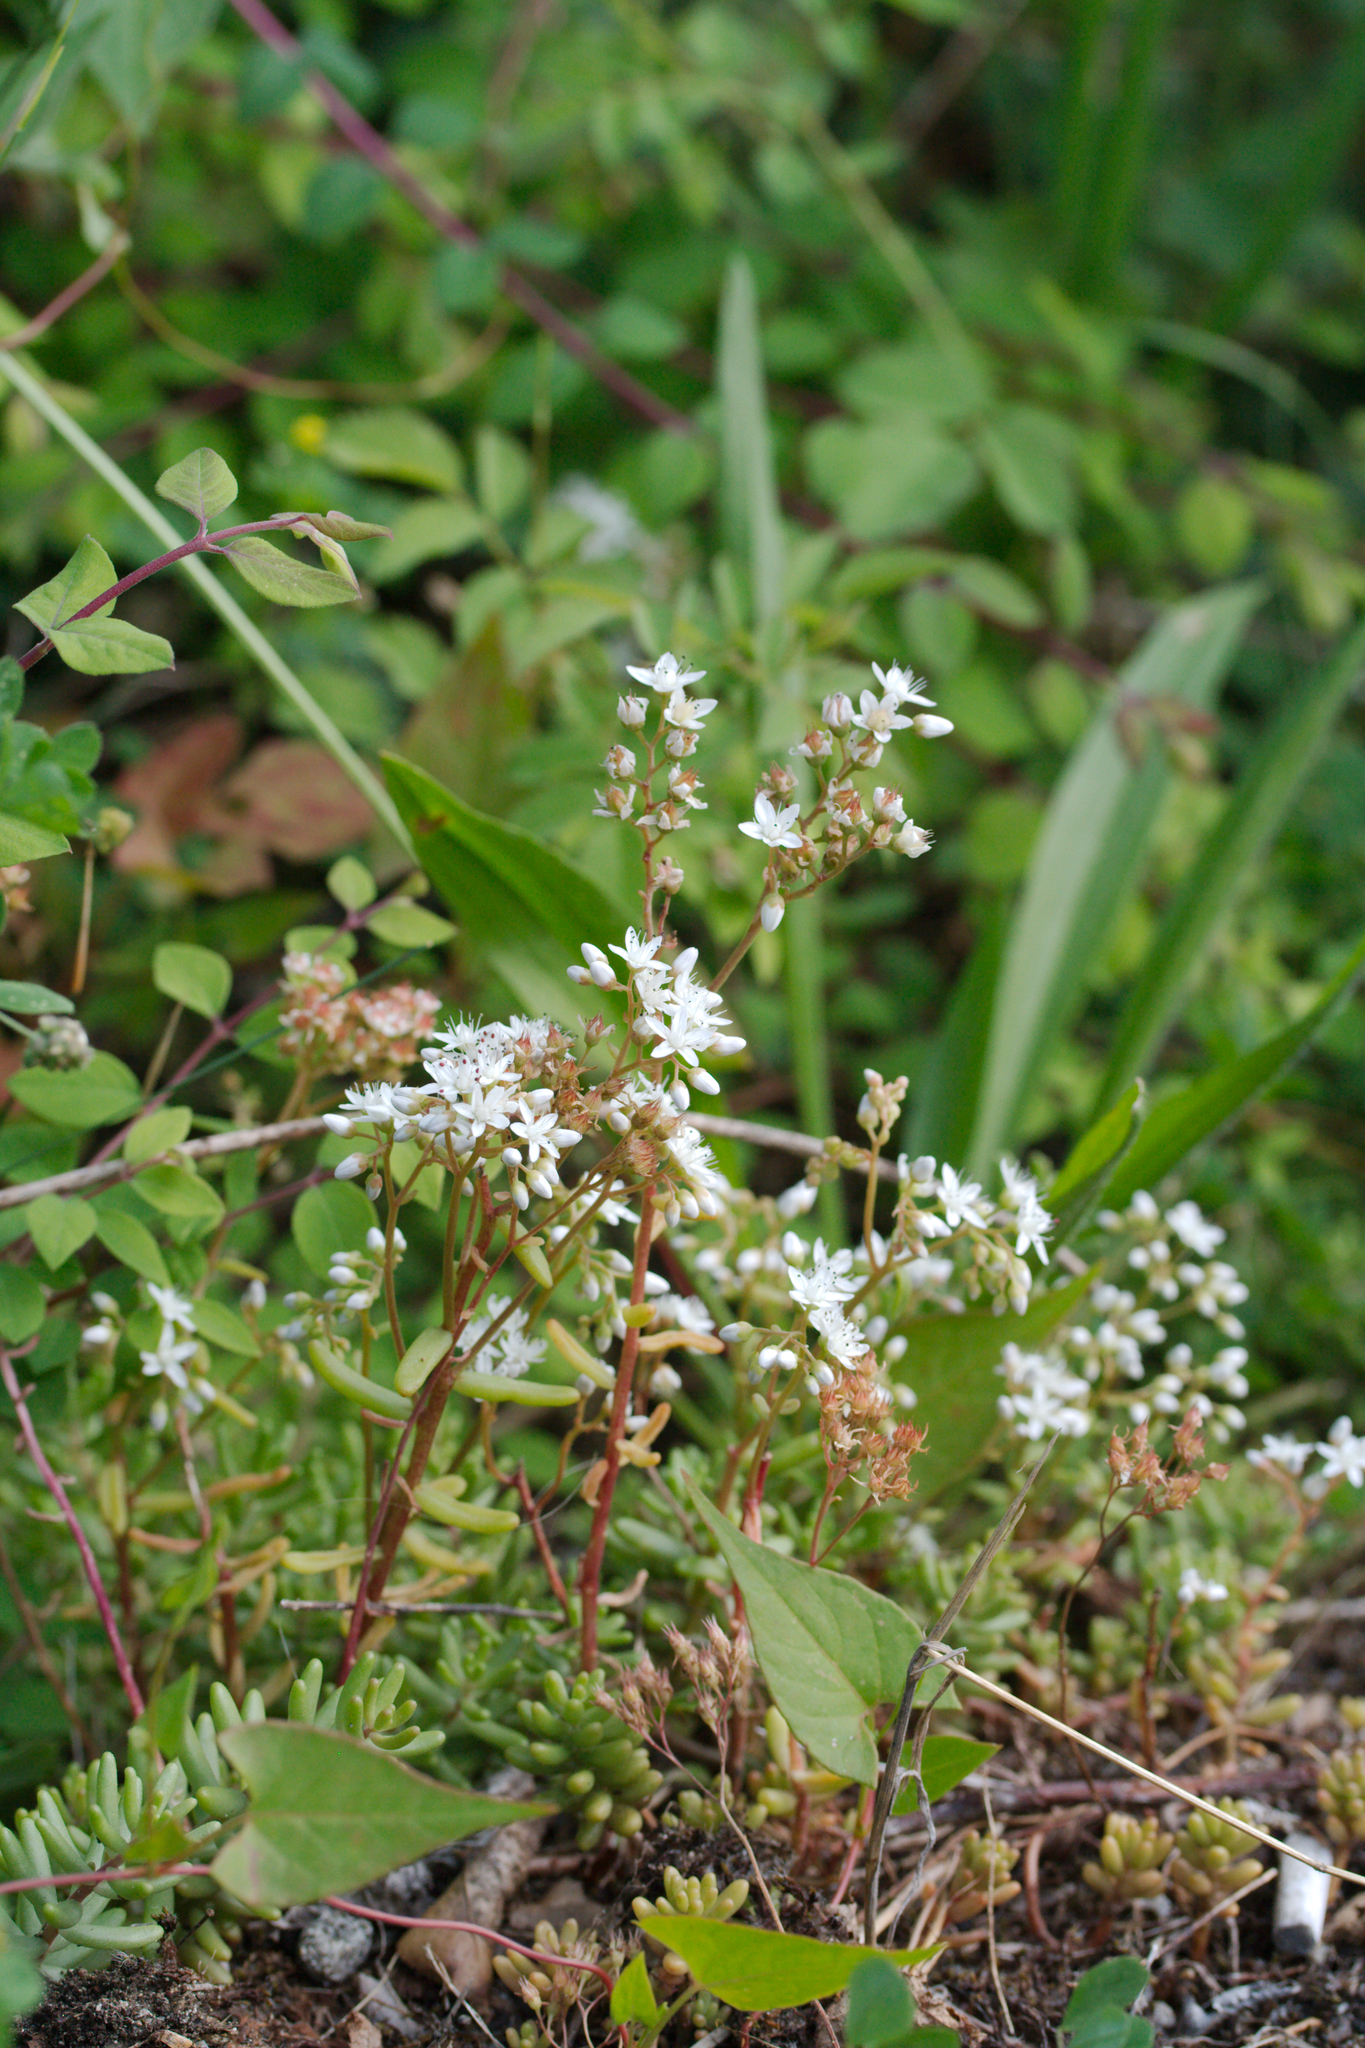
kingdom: Plantae
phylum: Tracheophyta
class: Magnoliopsida
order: Saxifragales
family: Crassulaceae
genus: Sedum
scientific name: Sedum album
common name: White stonecrop
